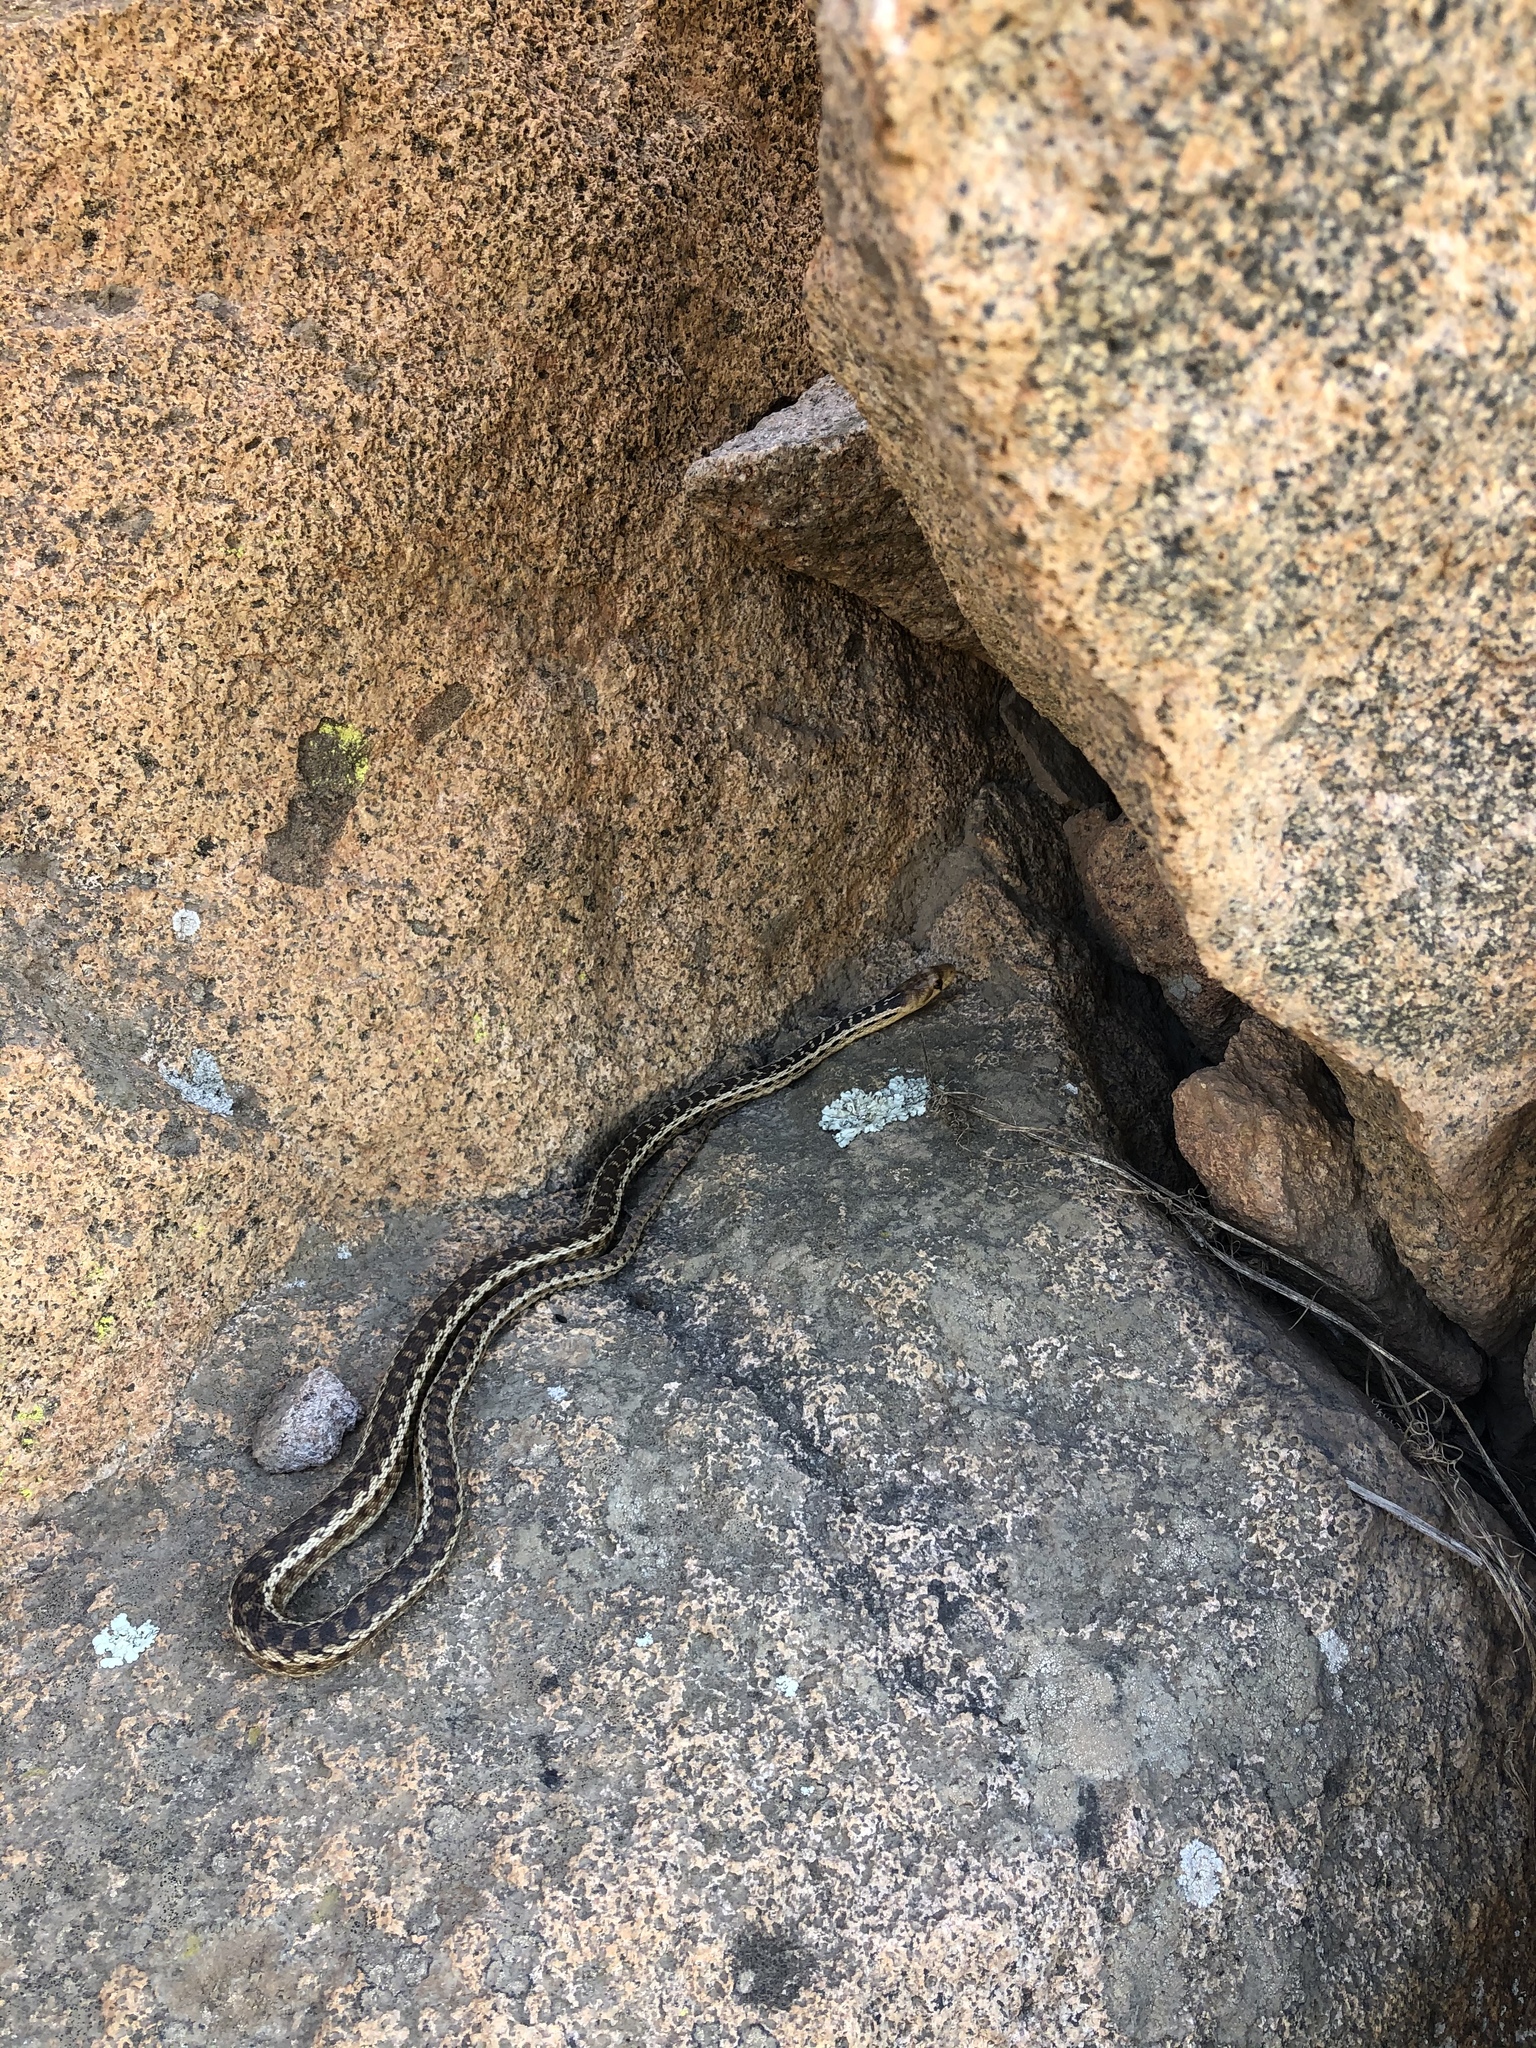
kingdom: Animalia
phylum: Chordata
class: Squamata
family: Colubridae
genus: Pituophis
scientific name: Pituophis catenifer
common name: Gopher snake
